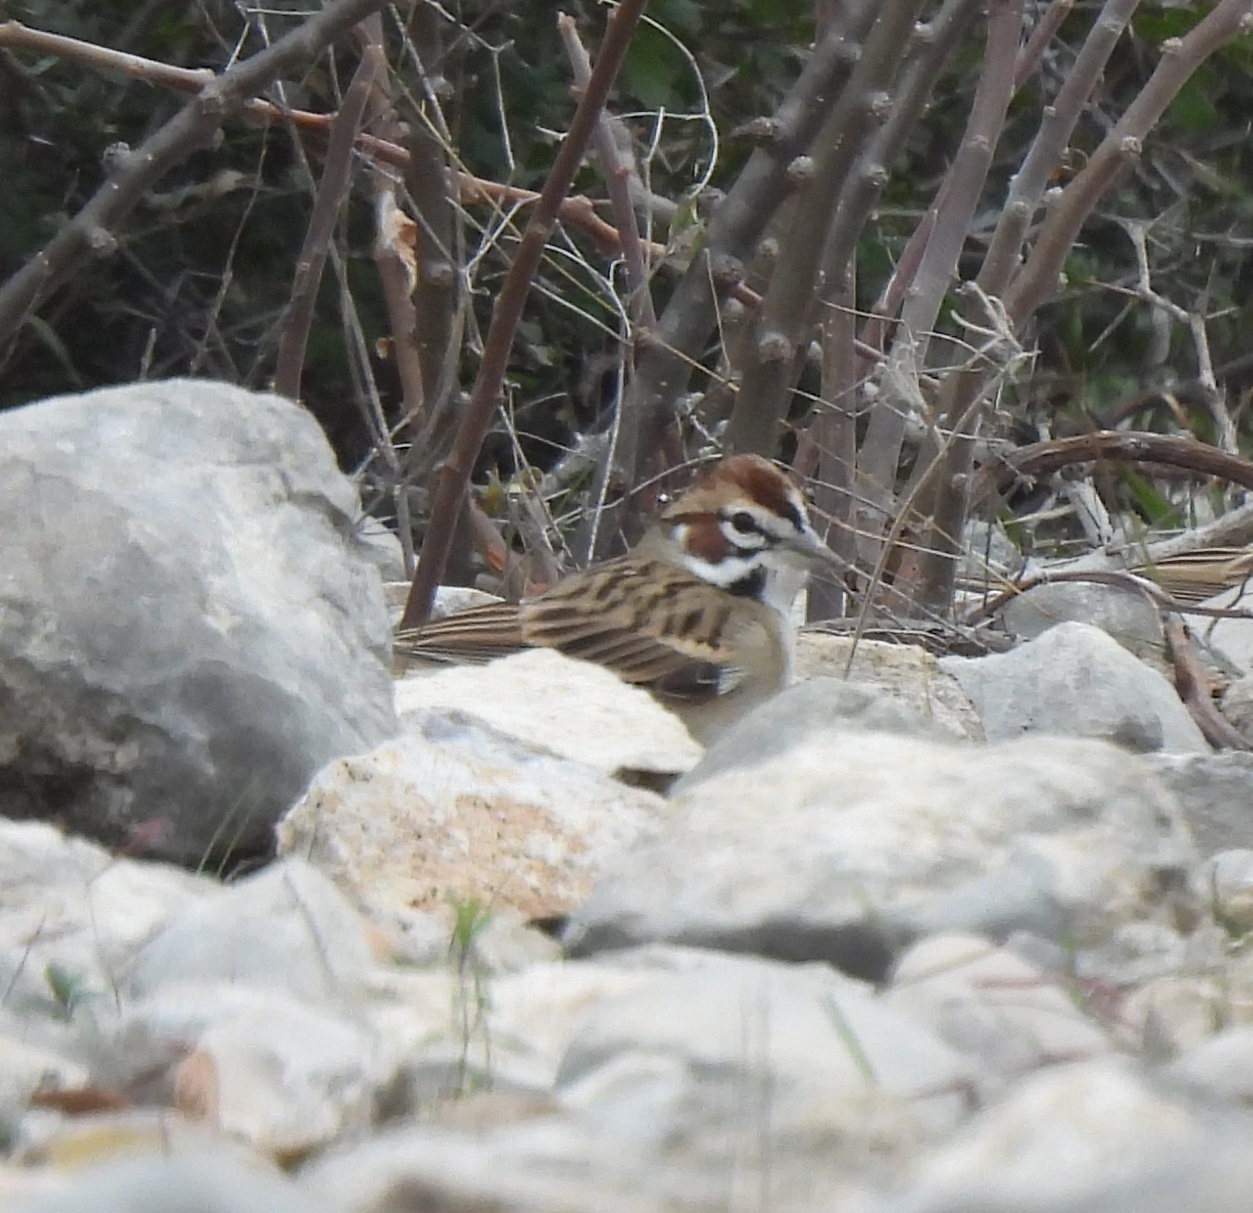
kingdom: Animalia
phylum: Chordata
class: Aves
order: Passeriformes
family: Passerellidae
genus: Chondestes
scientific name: Chondestes grammacus
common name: Lark sparrow
